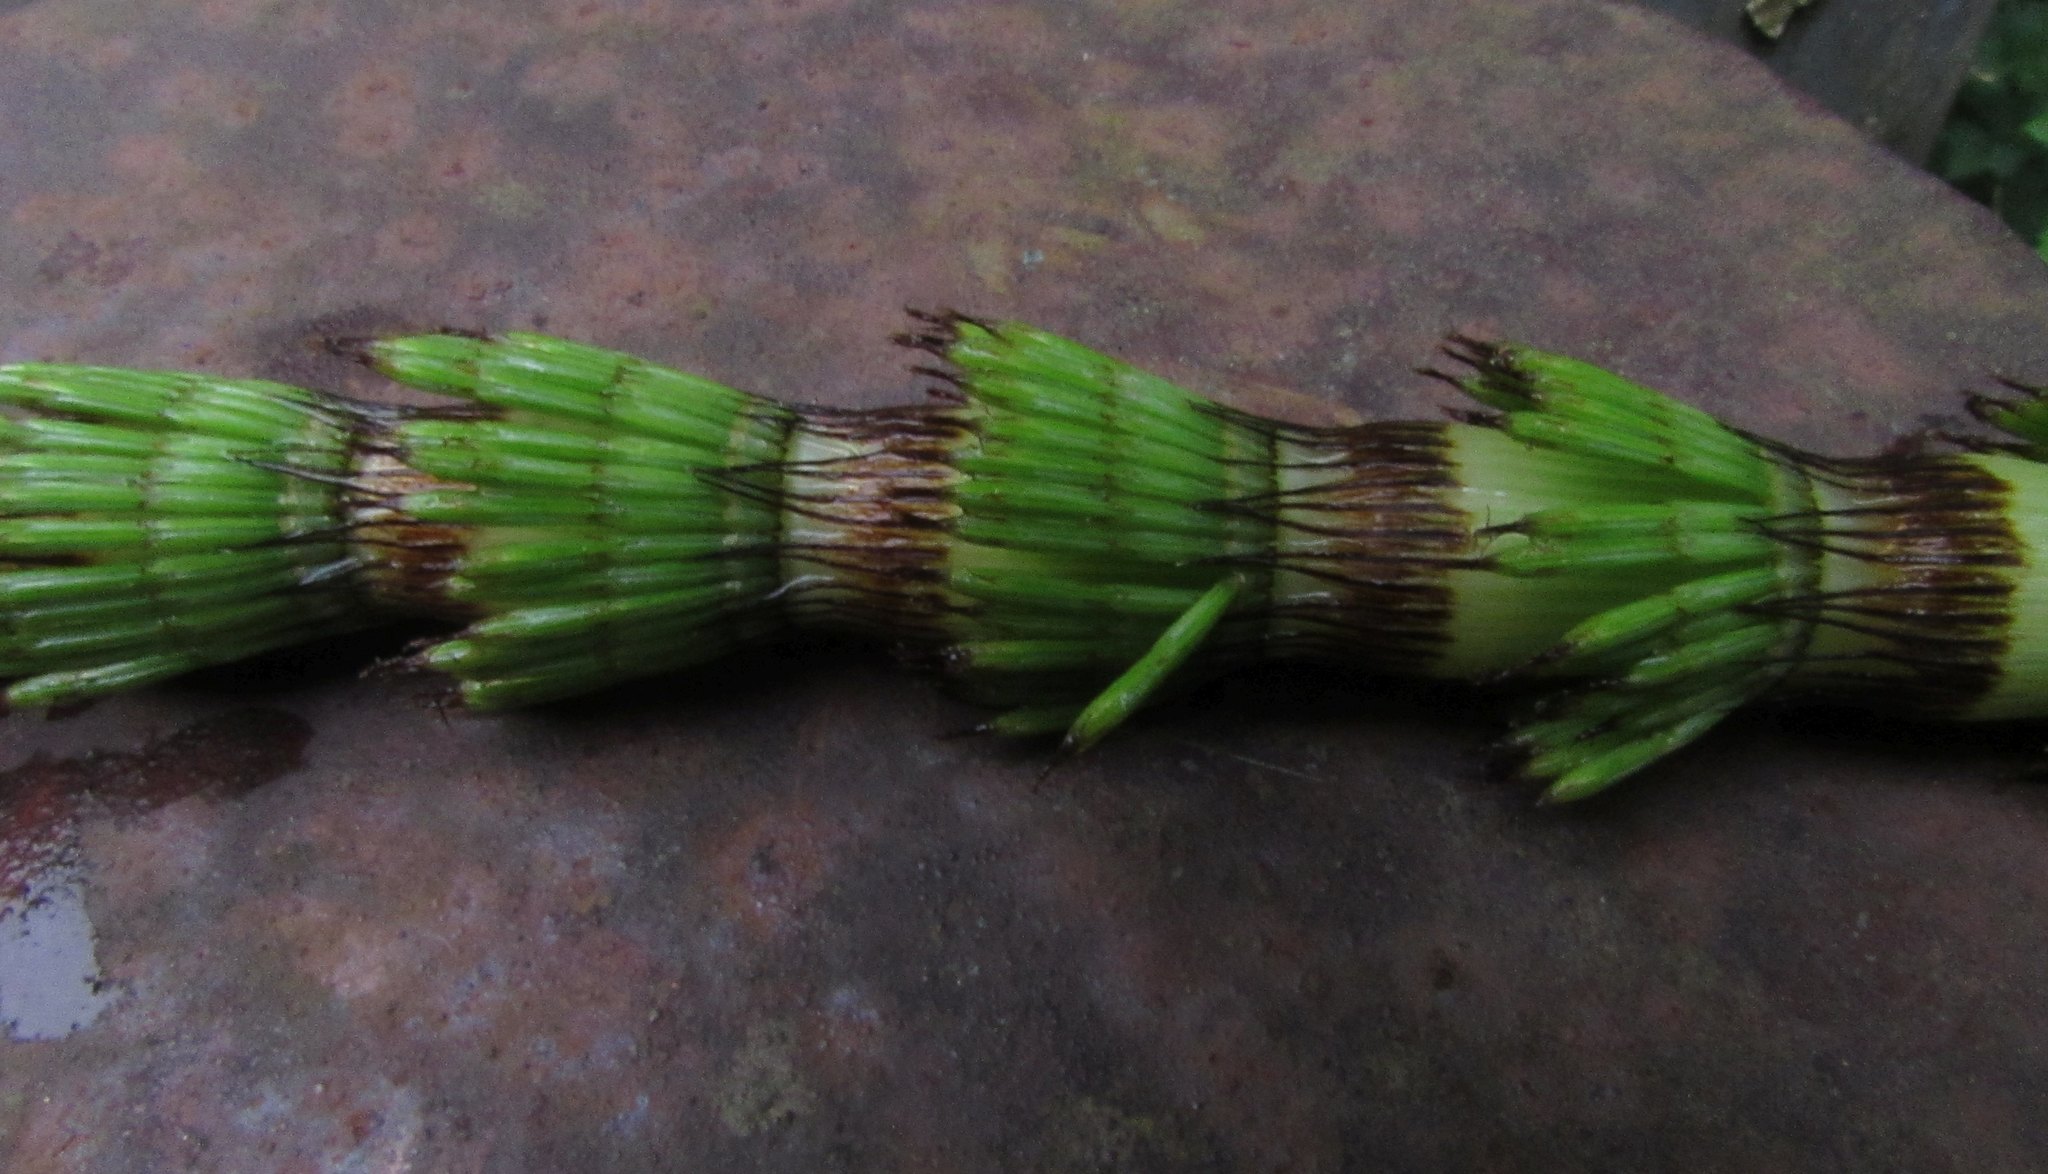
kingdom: Plantae
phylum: Tracheophyta
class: Polypodiopsida
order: Equisetales
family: Equisetaceae
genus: Equisetum
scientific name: Equisetum telmateia
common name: Great horsetail
